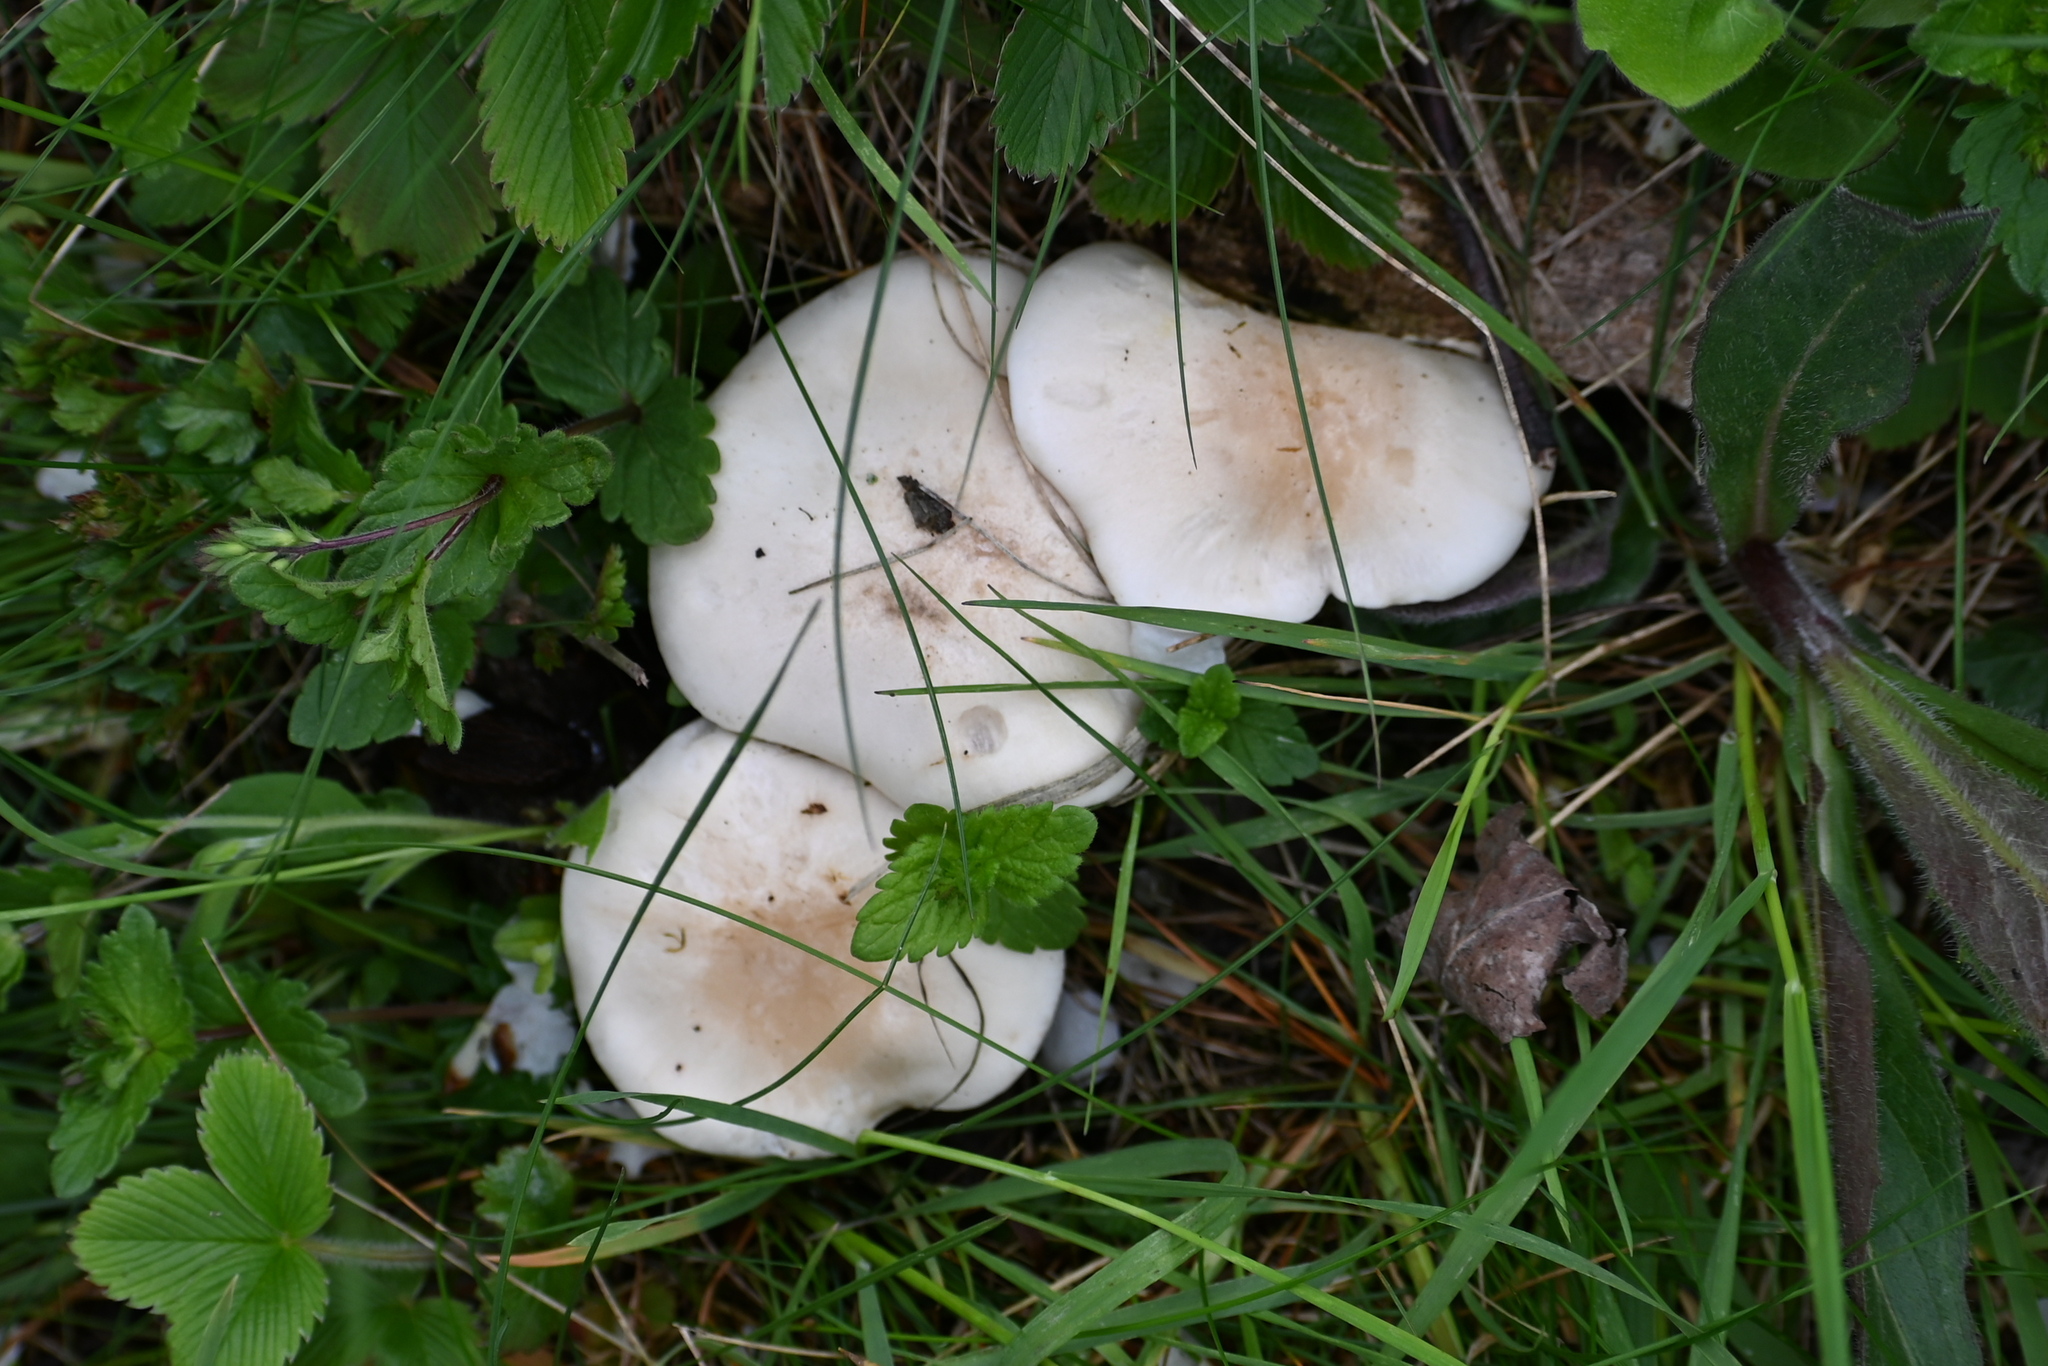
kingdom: Fungi
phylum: Basidiomycota
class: Agaricomycetes
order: Agaricales
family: Lyophyllaceae
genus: Calocybe
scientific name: Calocybe gambosa
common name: St. george's mushroom
